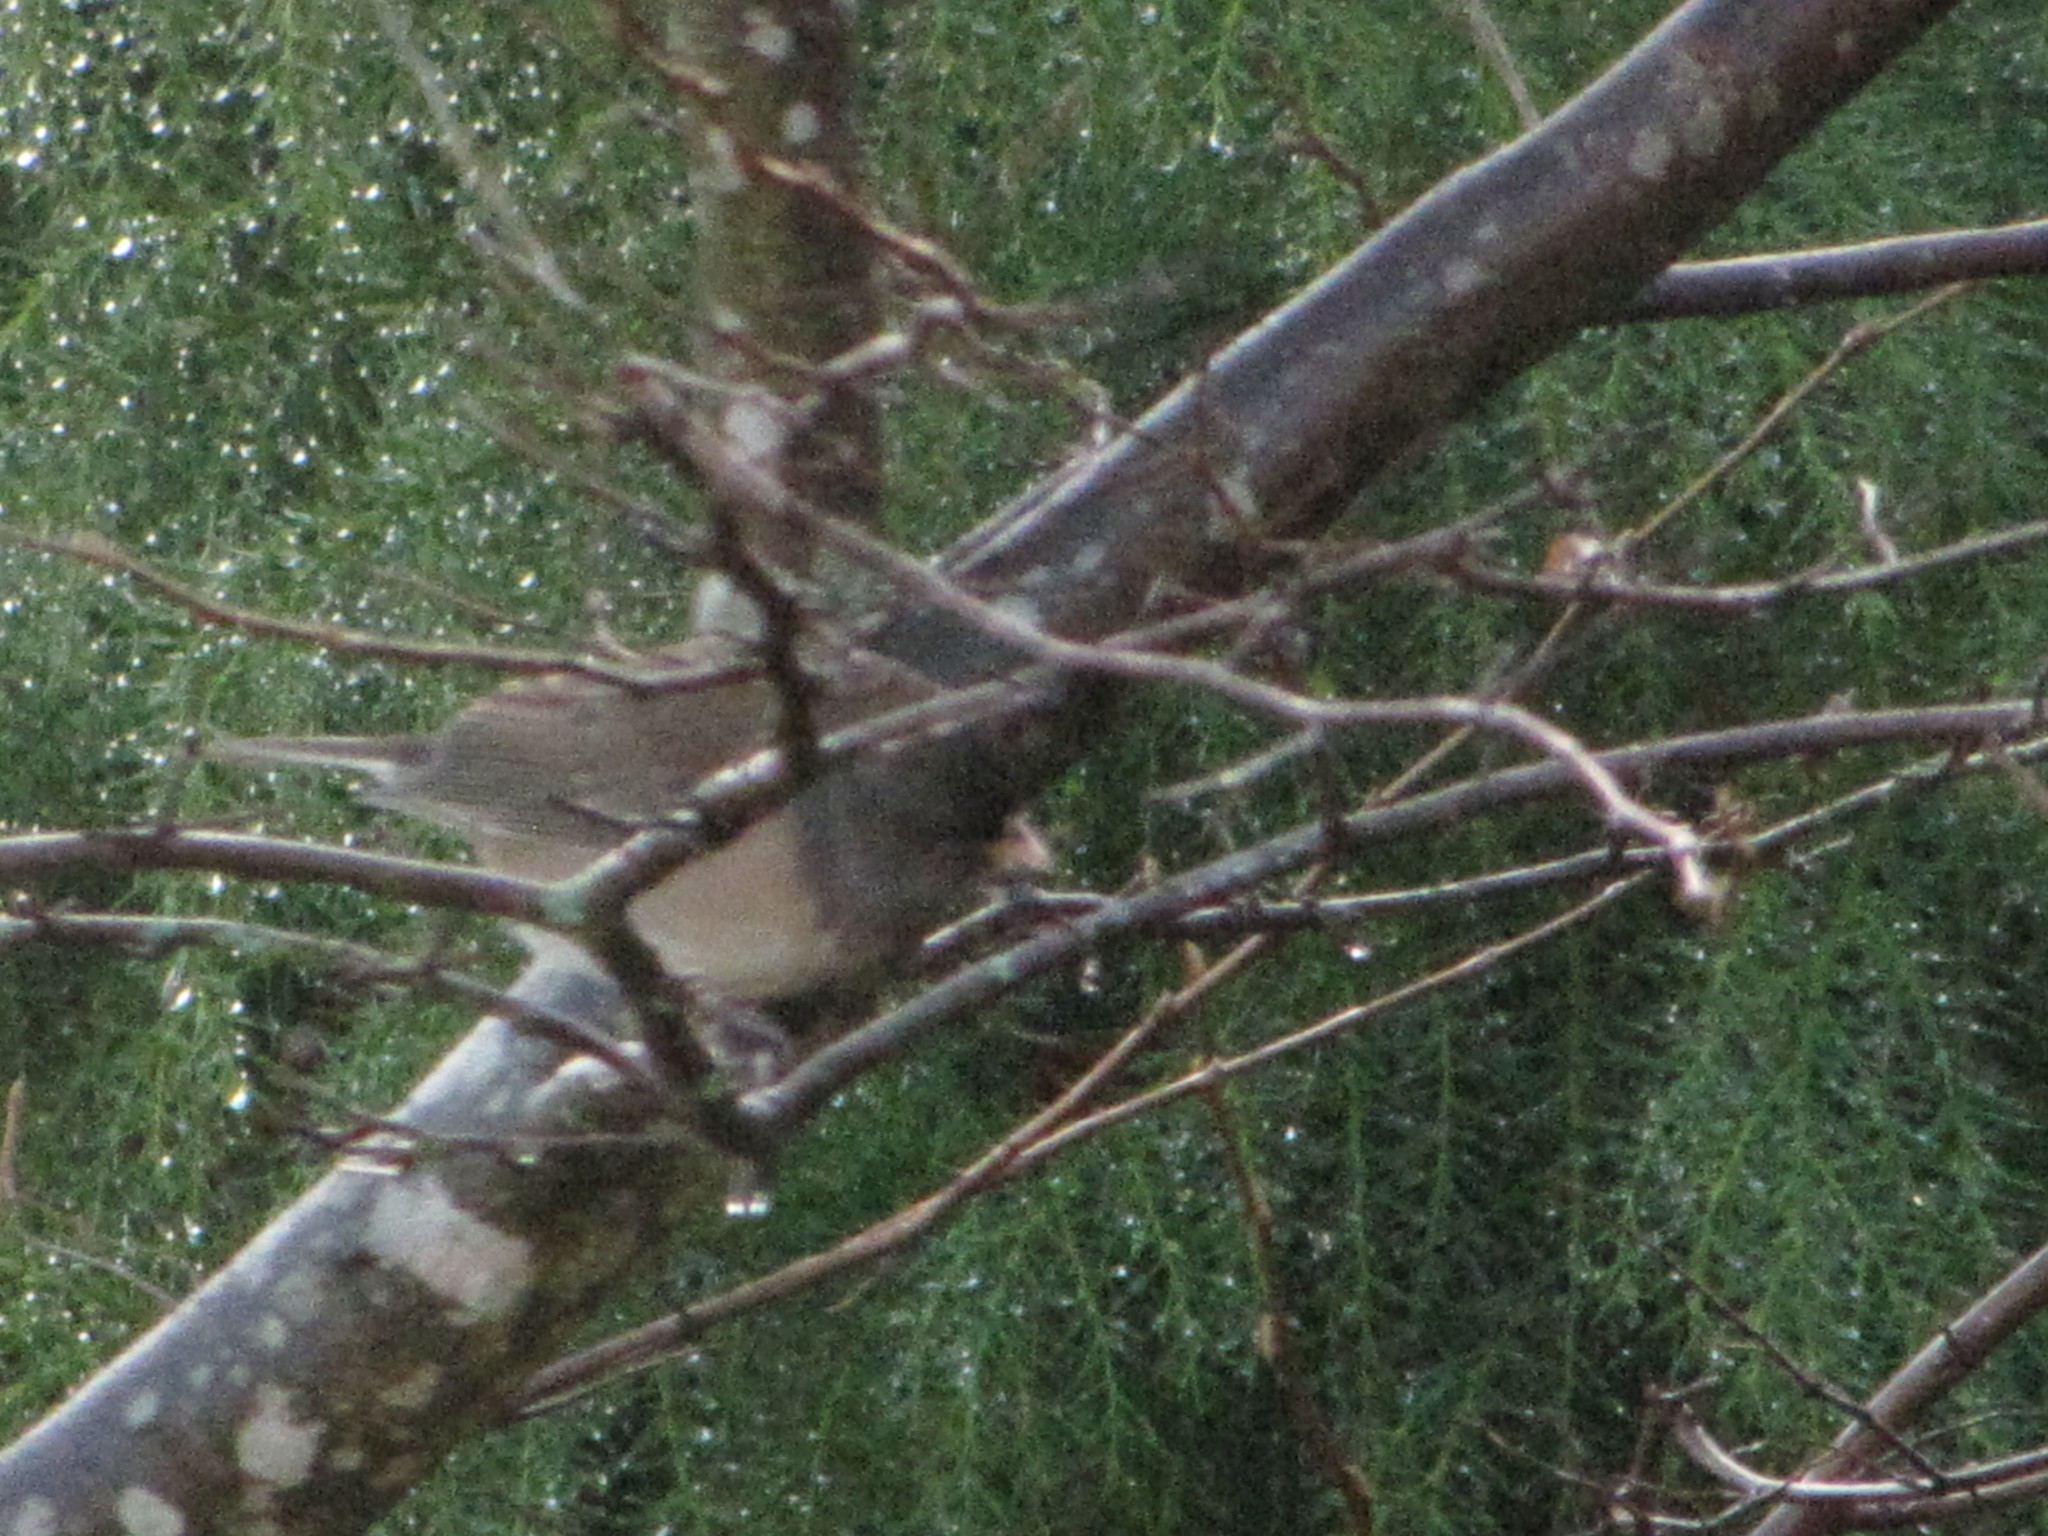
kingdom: Animalia
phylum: Chordata
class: Aves
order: Passeriformes
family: Passerellidae
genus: Junco
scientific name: Junco hyemalis
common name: Dark-eyed junco
